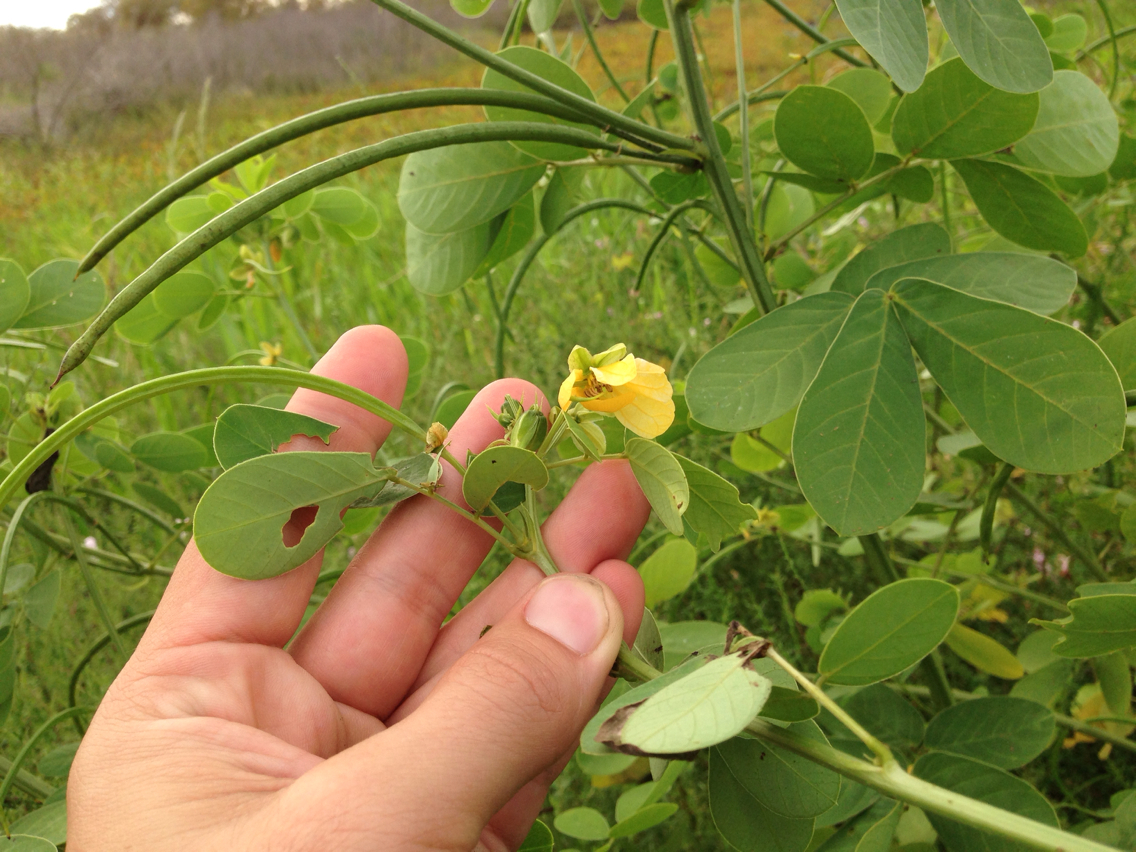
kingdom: Plantae
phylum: Tracheophyta
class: Magnoliopsida
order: Fabales
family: Fabaceae
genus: Senna
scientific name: Senna obtusifolia
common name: Java-bean
